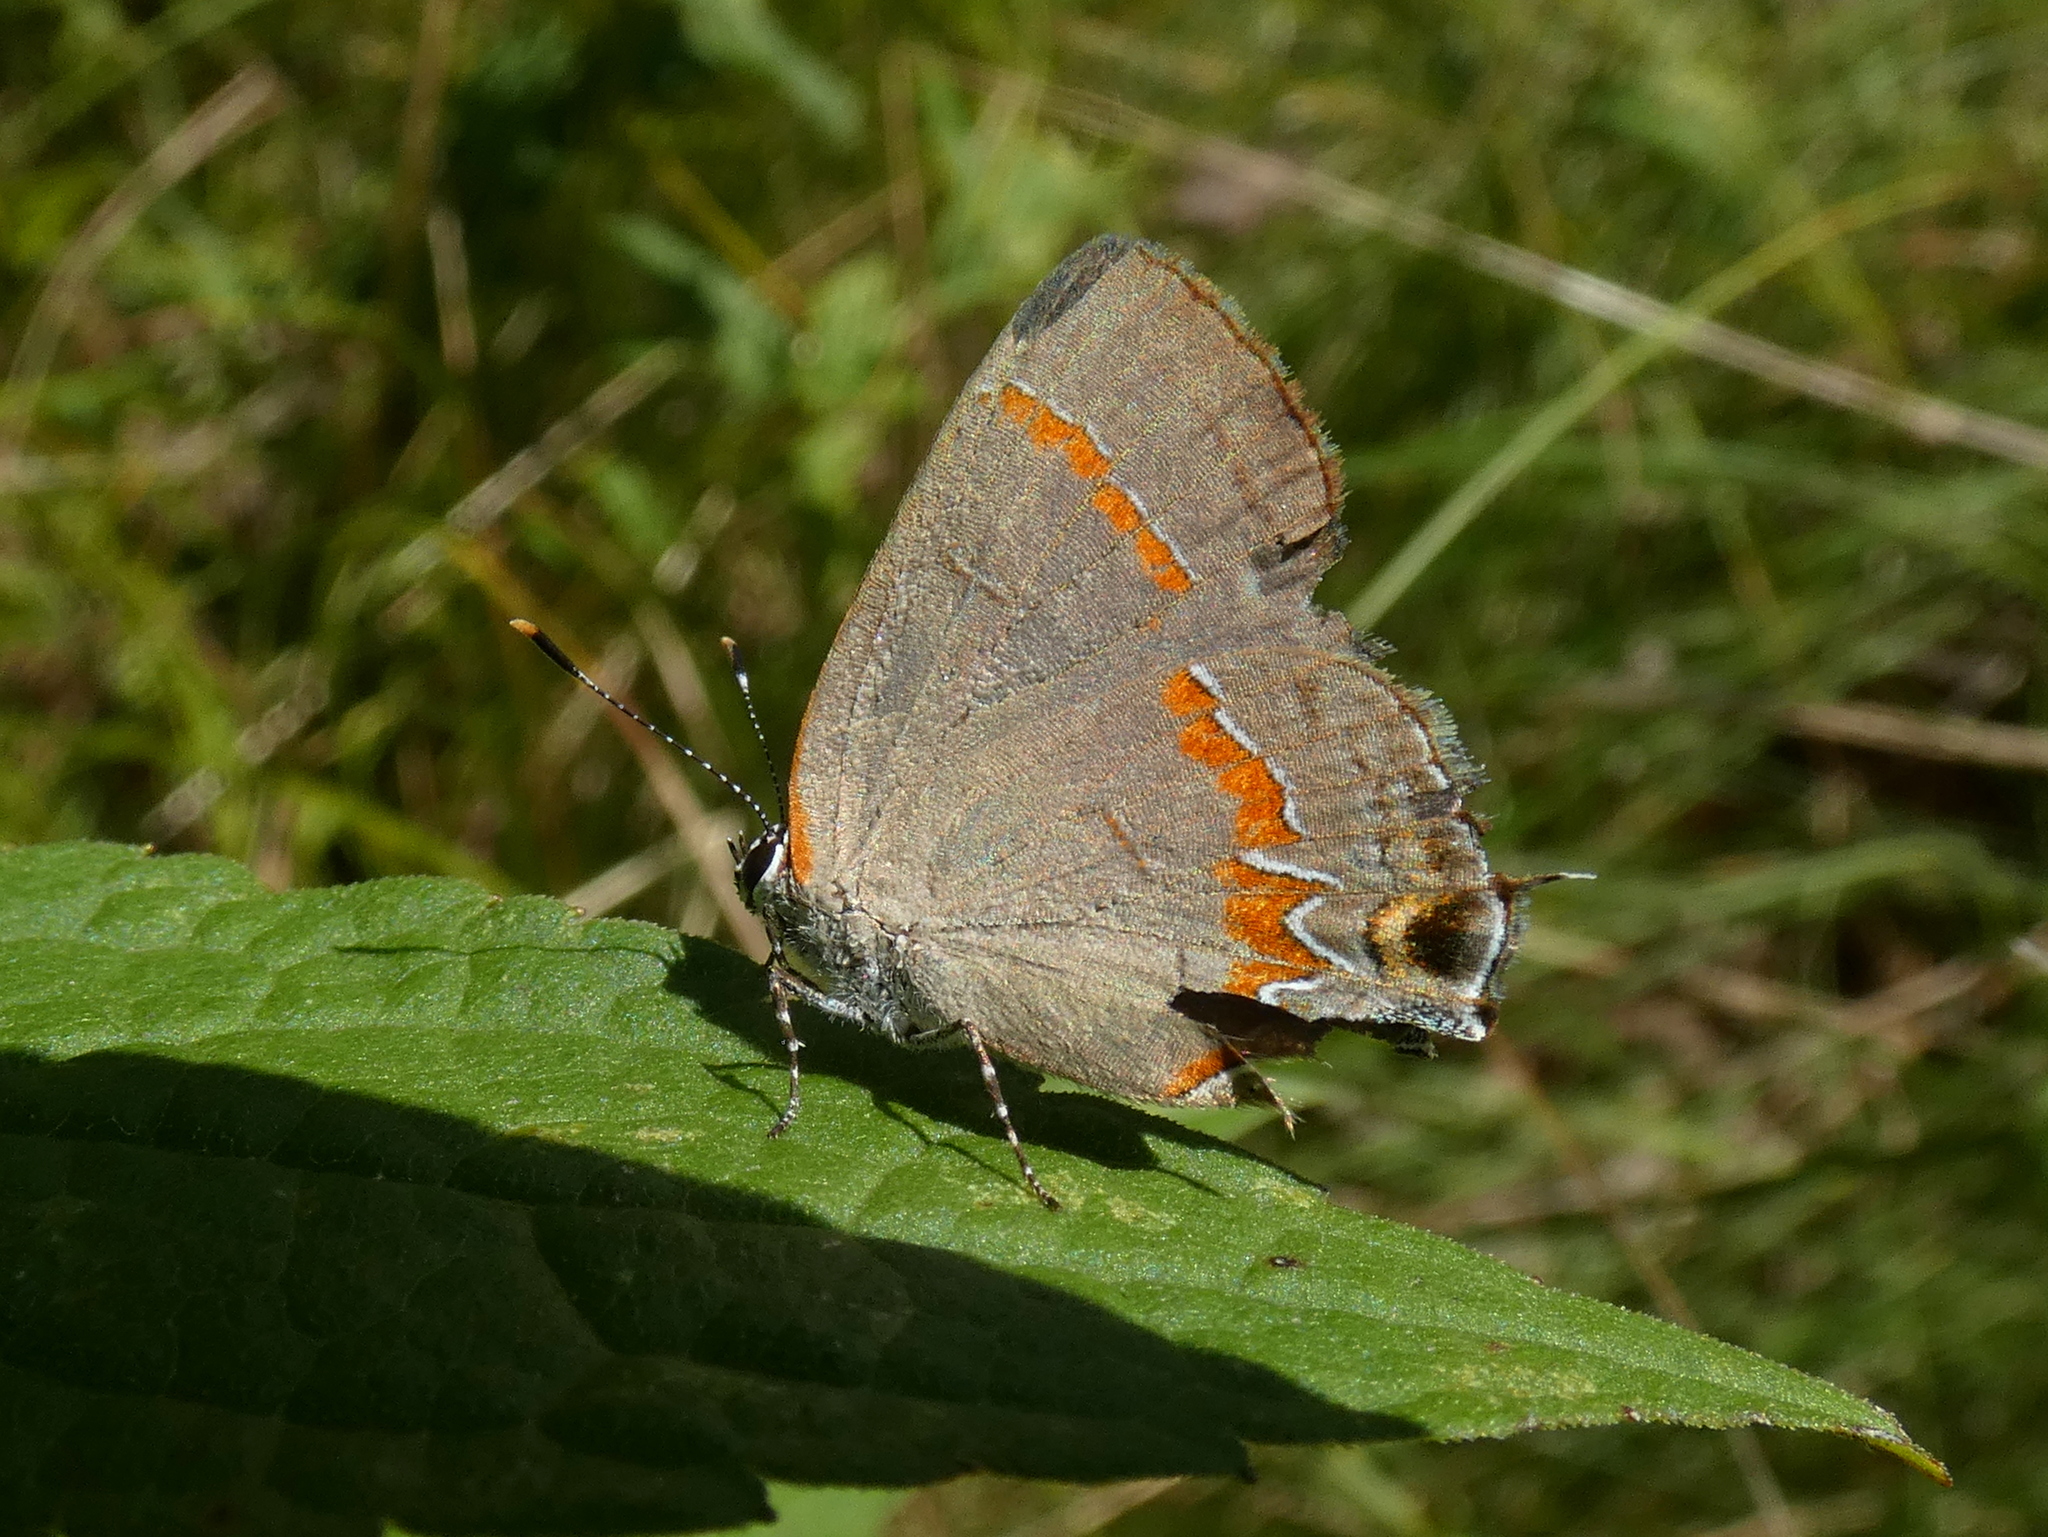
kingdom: Animalia
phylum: Arthropoda
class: Insecta
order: Lepidoptera
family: Lycaenidae
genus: Calycopis
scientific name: Calycopis cecrops
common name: Red-banded hairstreak
